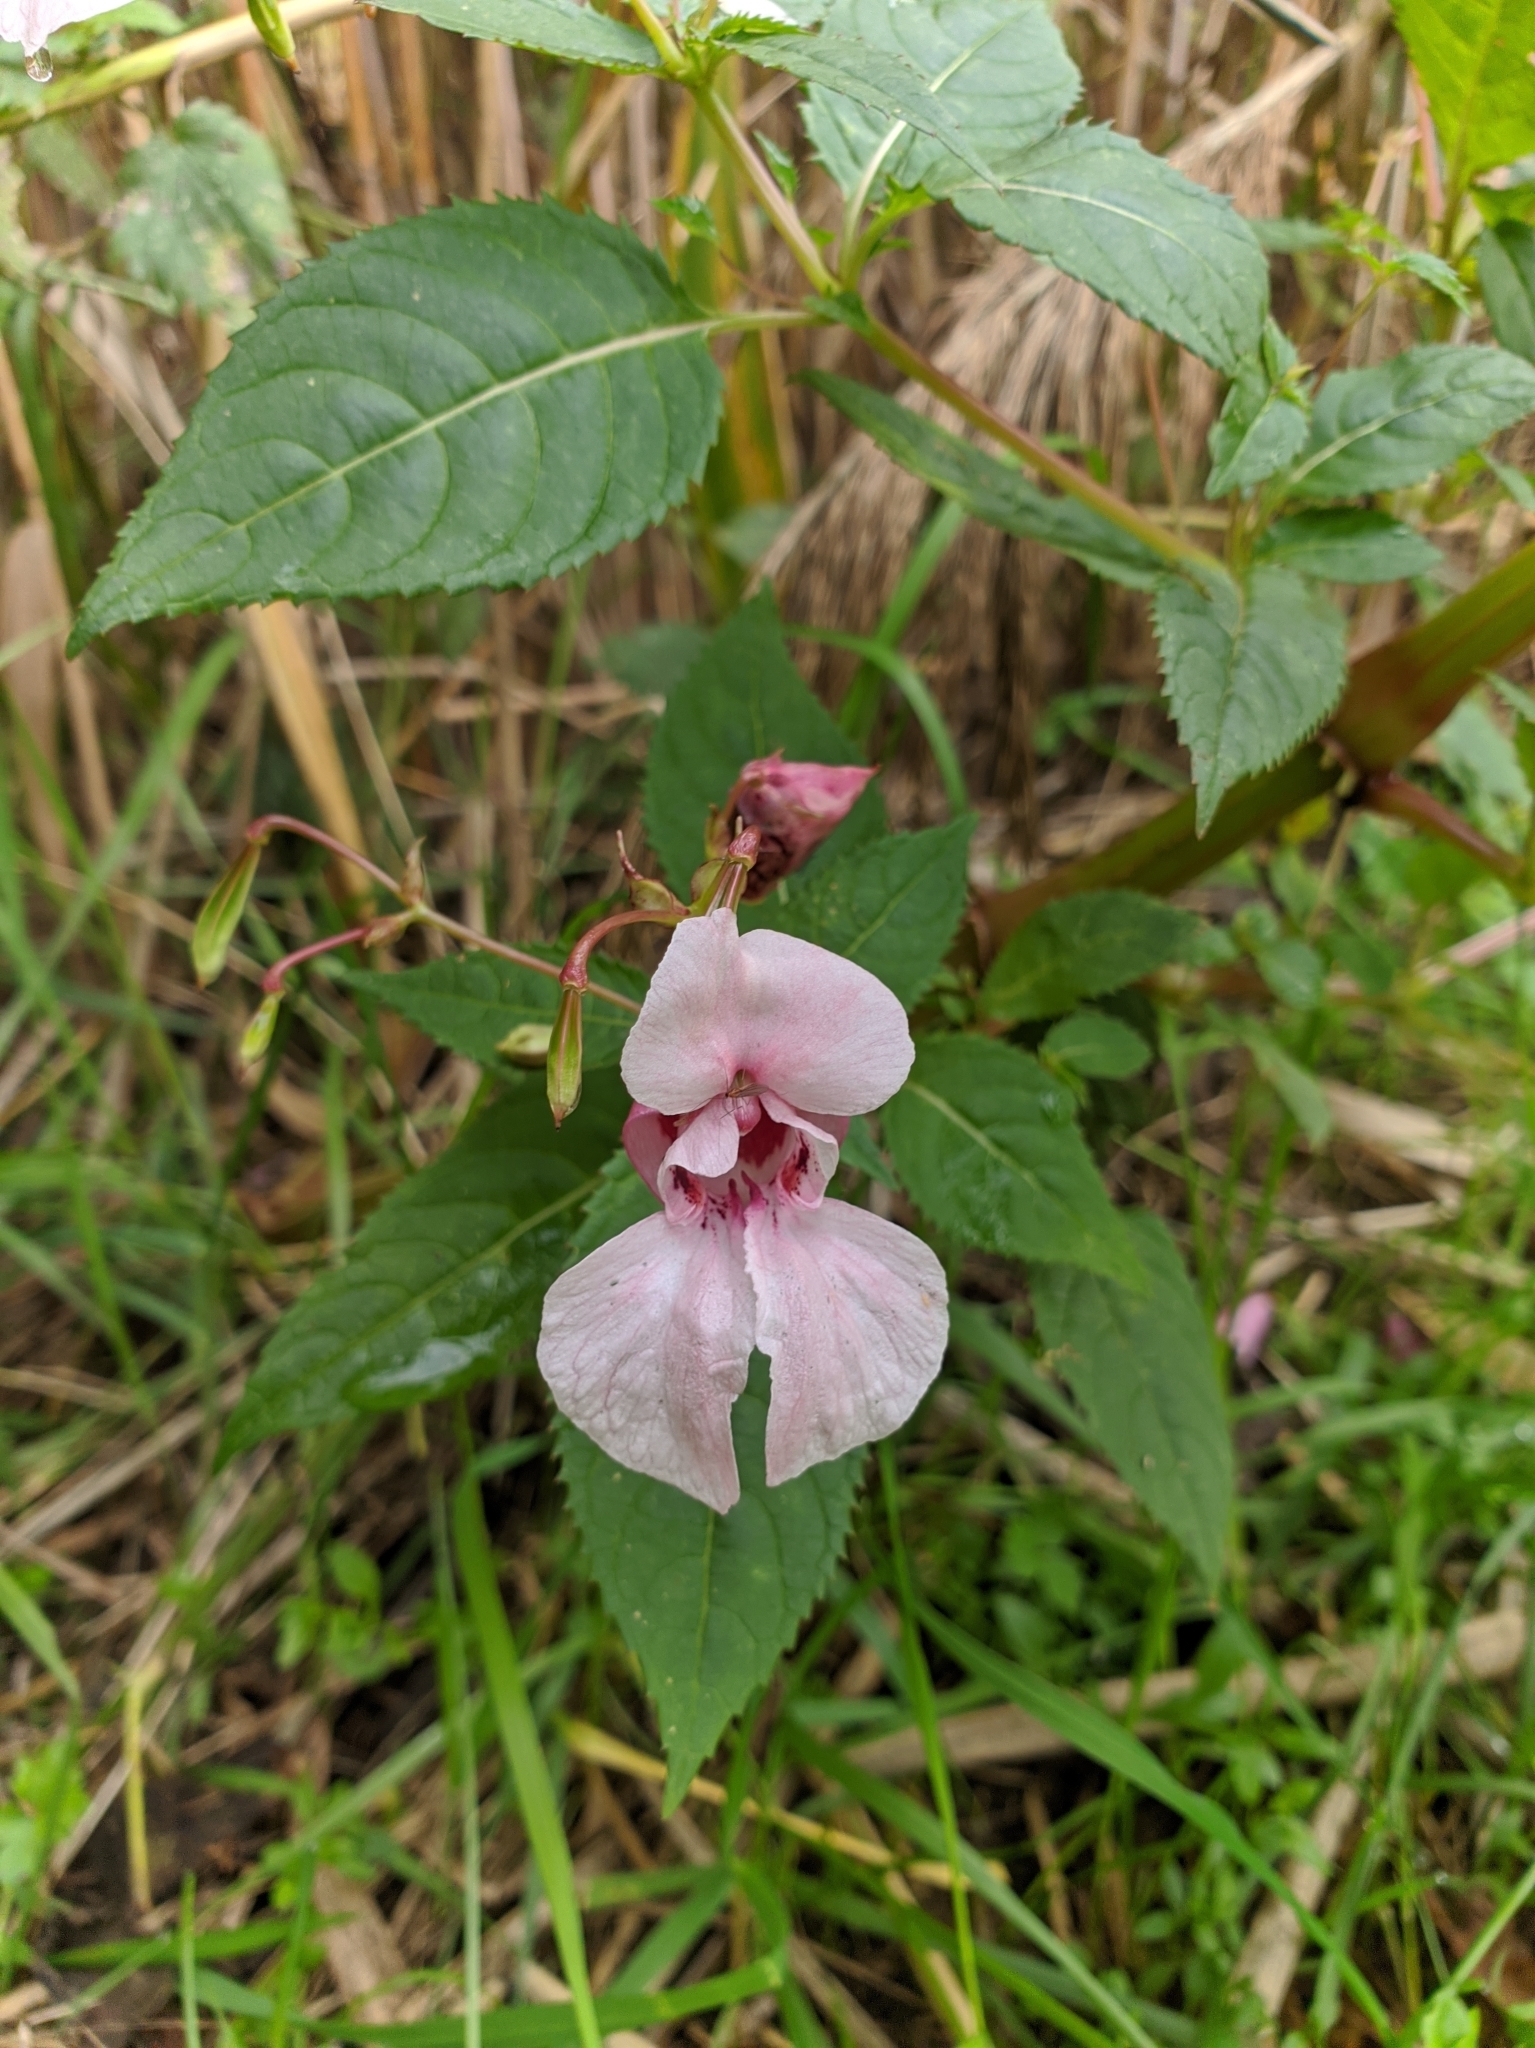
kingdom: Plantae
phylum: Tracheophyta
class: Magnoliopsida
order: Ericales
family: Balsaminaceae
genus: Impatiens
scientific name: Impatiens glandulifera
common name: Himalayan balsam
